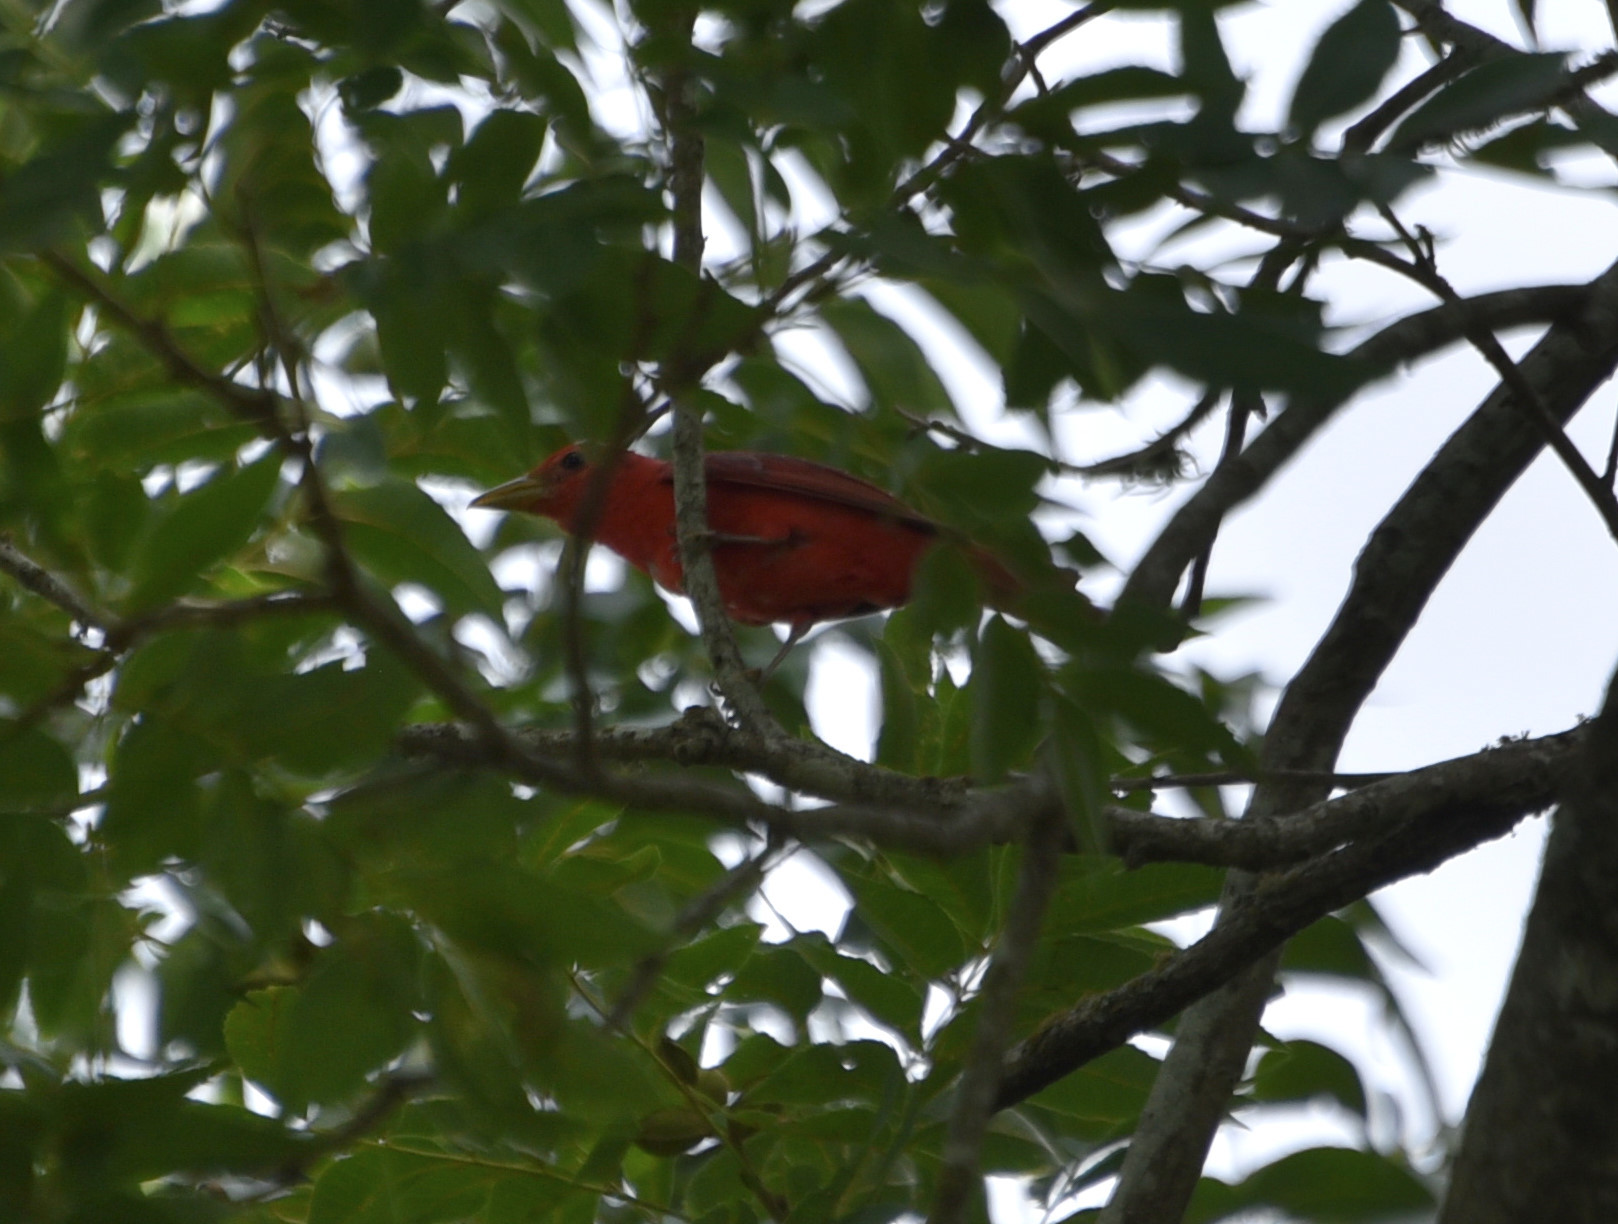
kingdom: Animalia
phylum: Chordata
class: Aves
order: Passeriformes
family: Cardinalidae
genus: Piranga
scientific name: Piranga rubra
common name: Summer tanager
